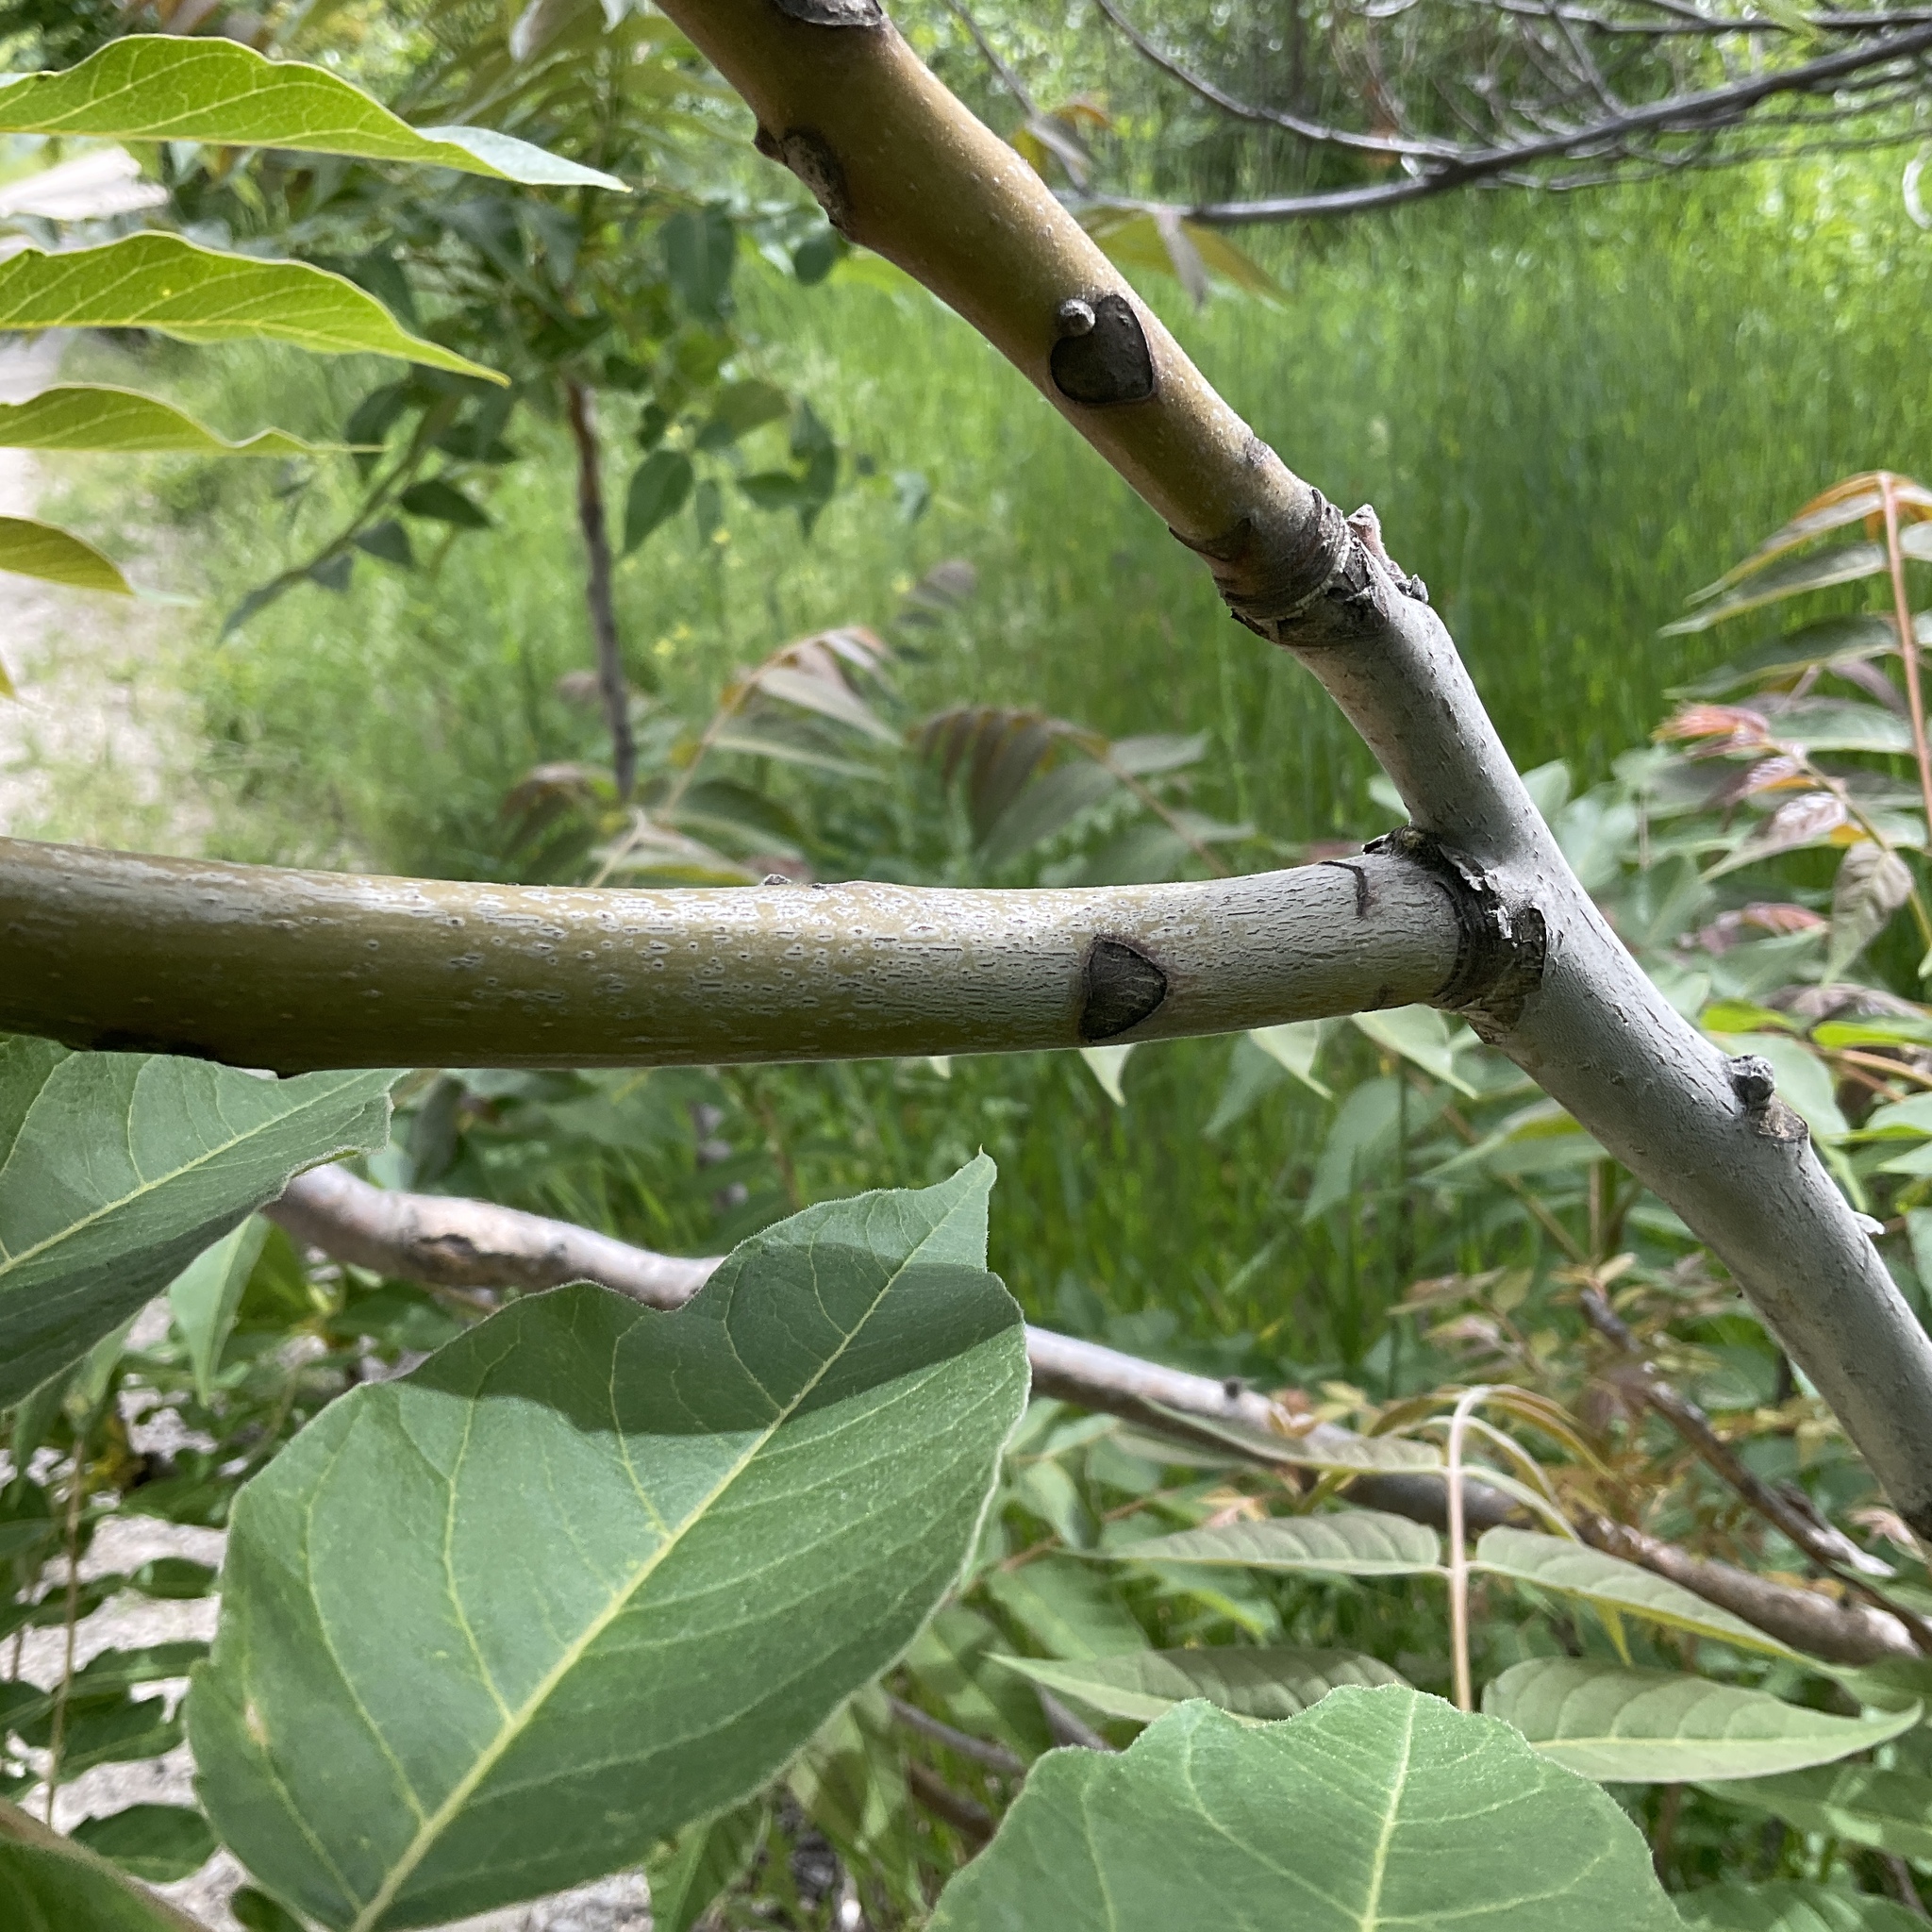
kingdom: Plantae
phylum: Tracheophyta
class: Magnoliopsida
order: Sapindales
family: Simaroubaceae
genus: Ailanthus
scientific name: Ailanthus altissima
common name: Tree-of-heaven
